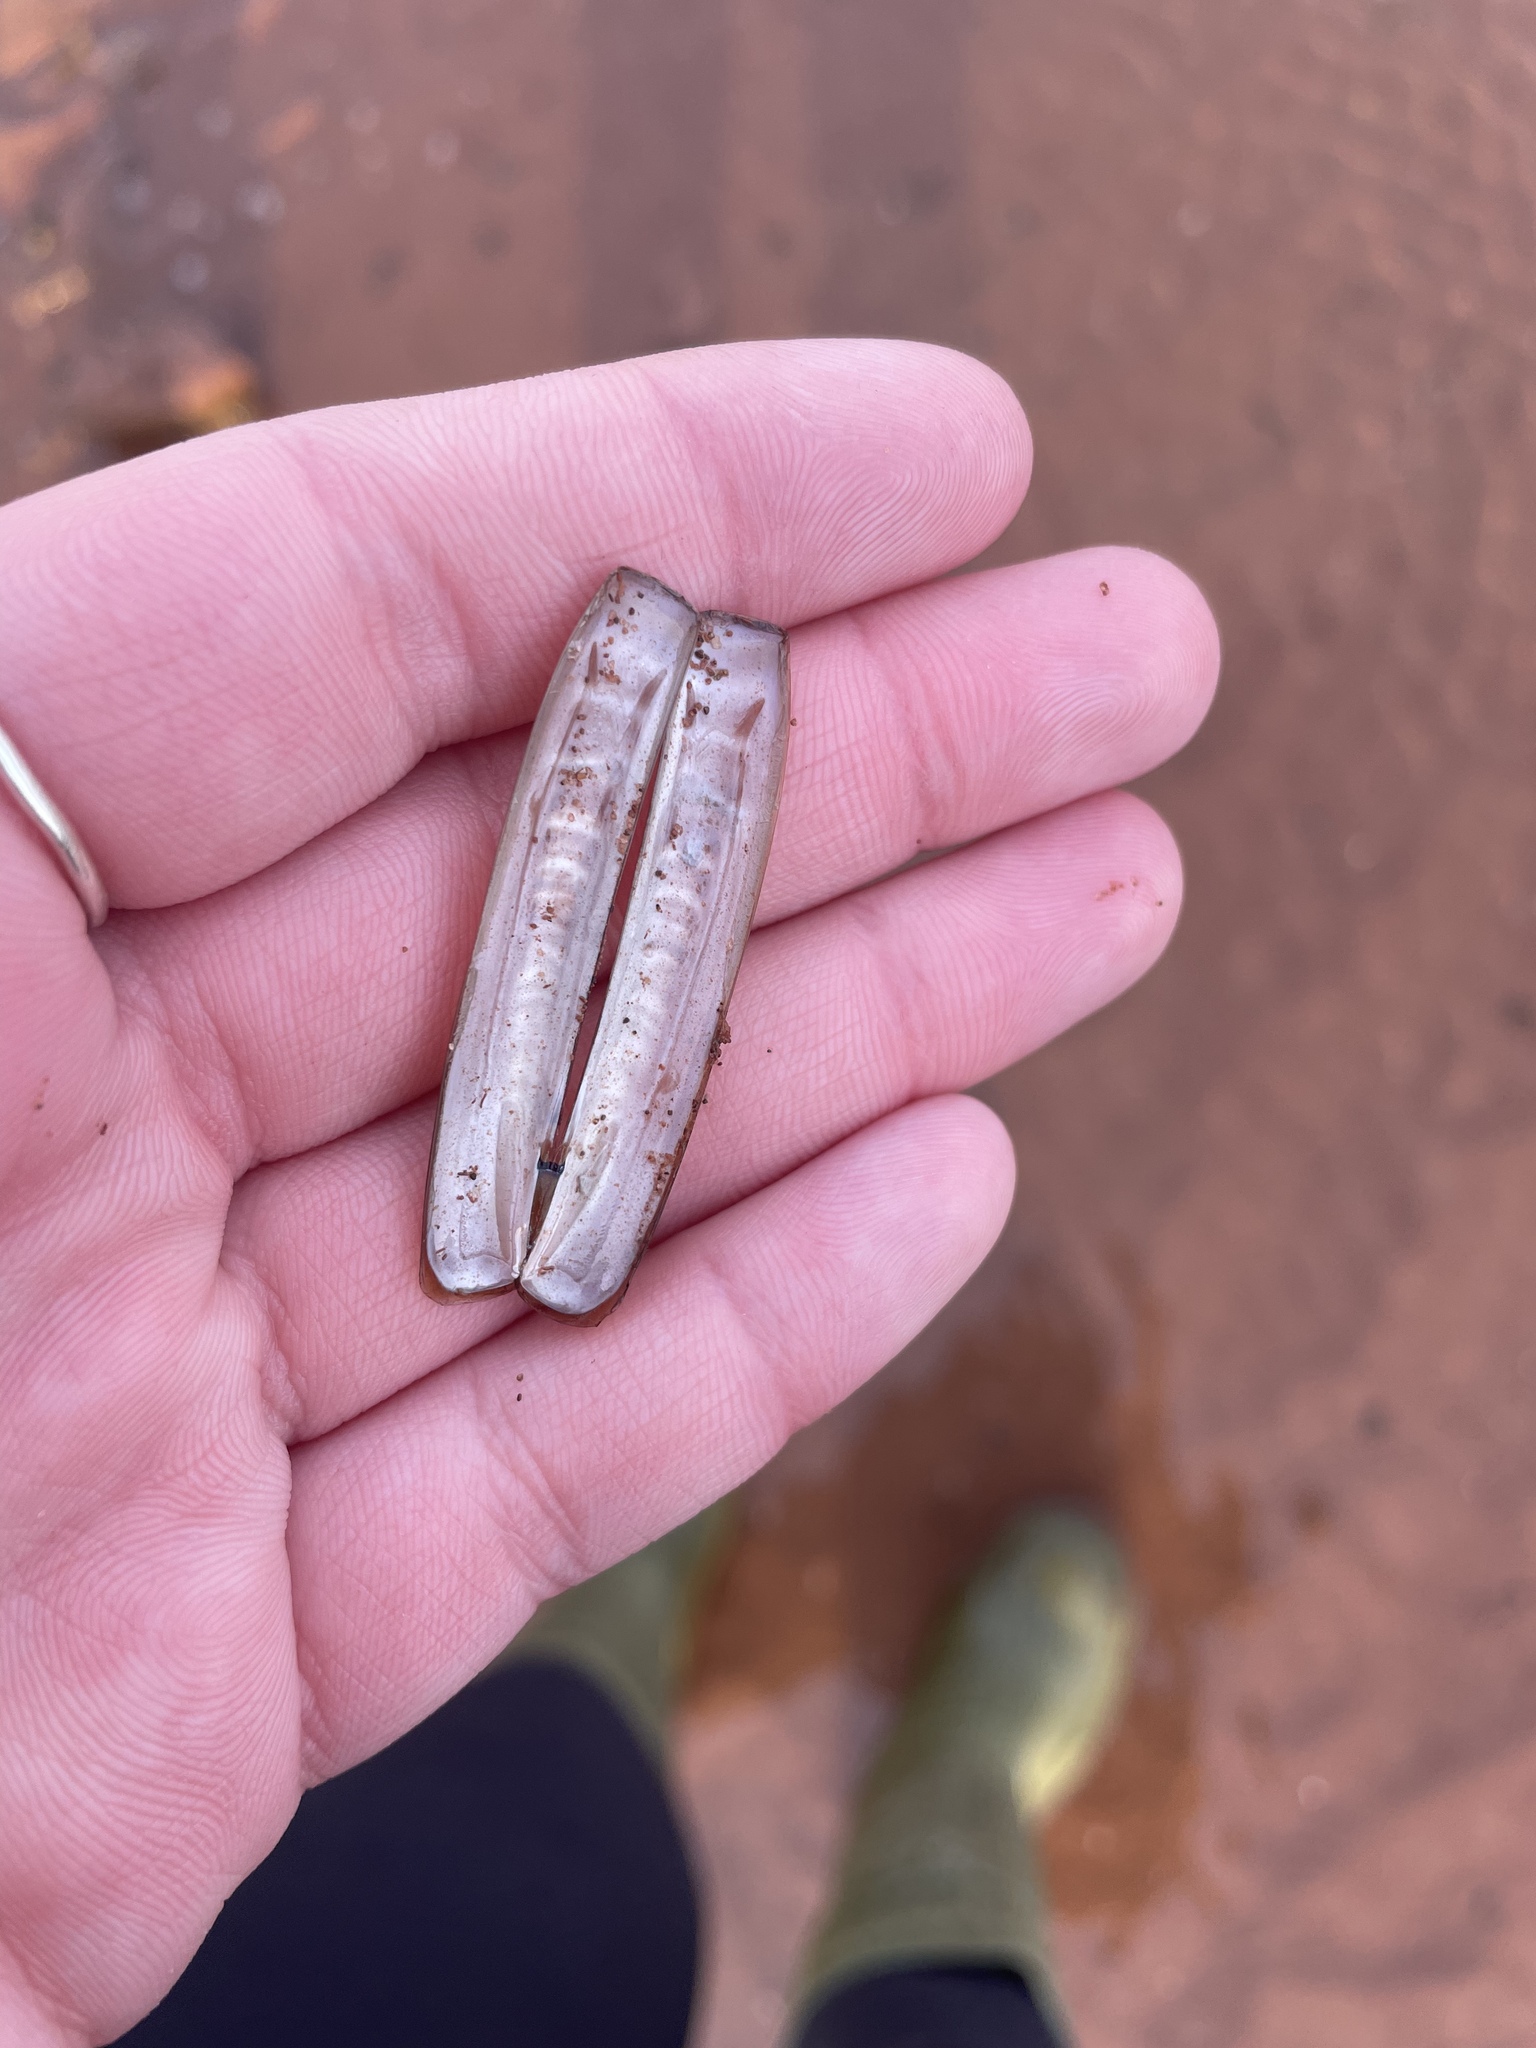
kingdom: Animalia
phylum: Mollusca
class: Bivalvia
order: Adapedonta
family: Pharidae
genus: Ensis
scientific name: Ensis leei
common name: American jack knife clam
